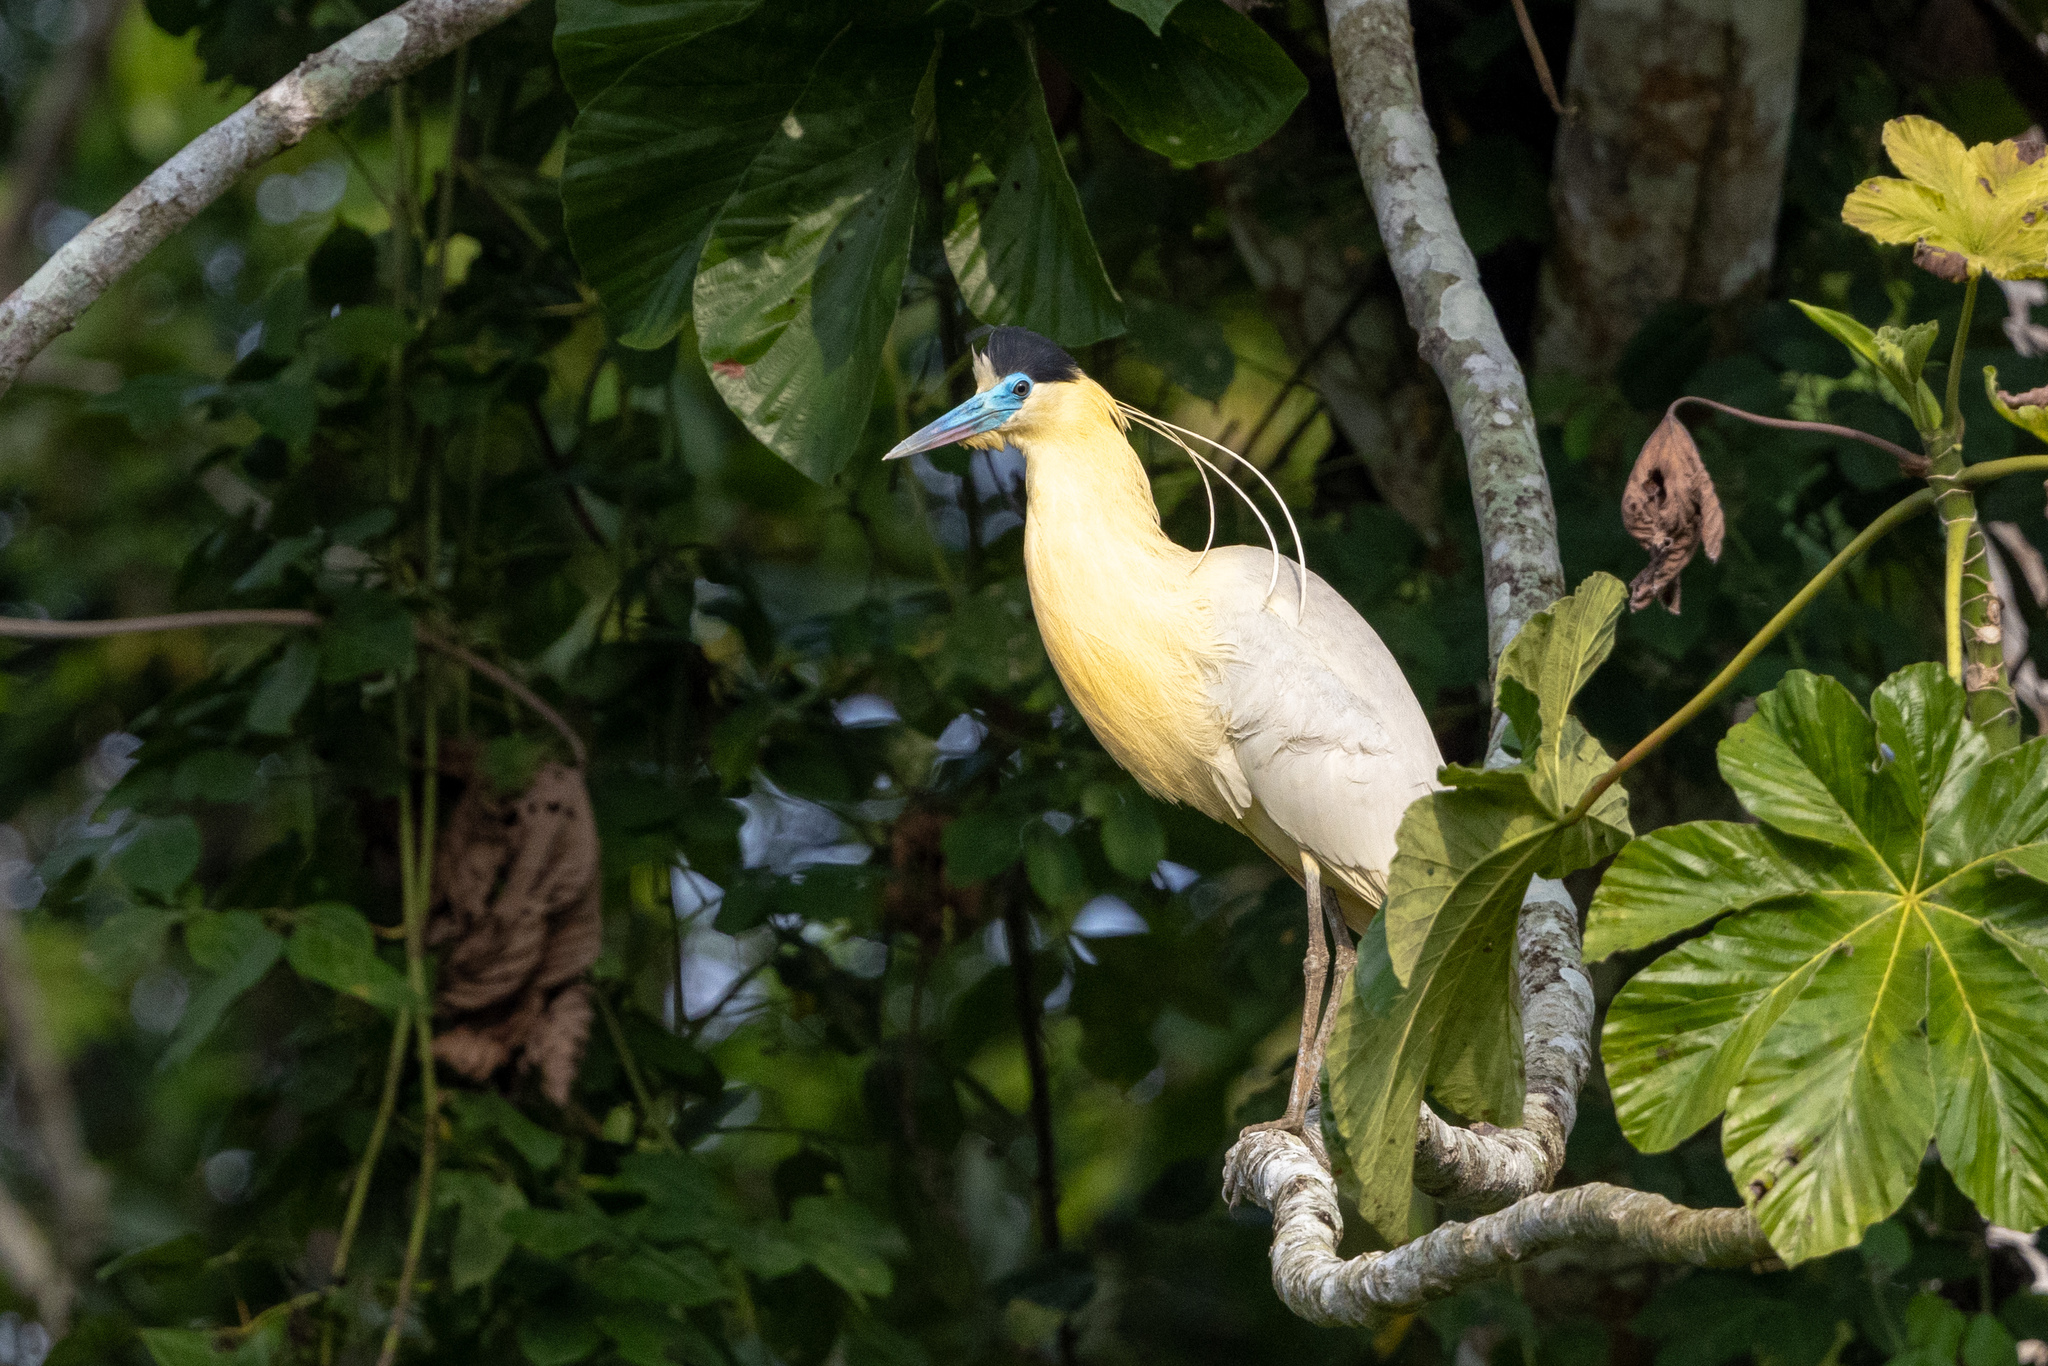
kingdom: Animalia
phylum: Chordata
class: Aves
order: Pelecaniformes
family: Ardeidae
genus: Pilherodius
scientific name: Pilherodius pileatus
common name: Capped heron
